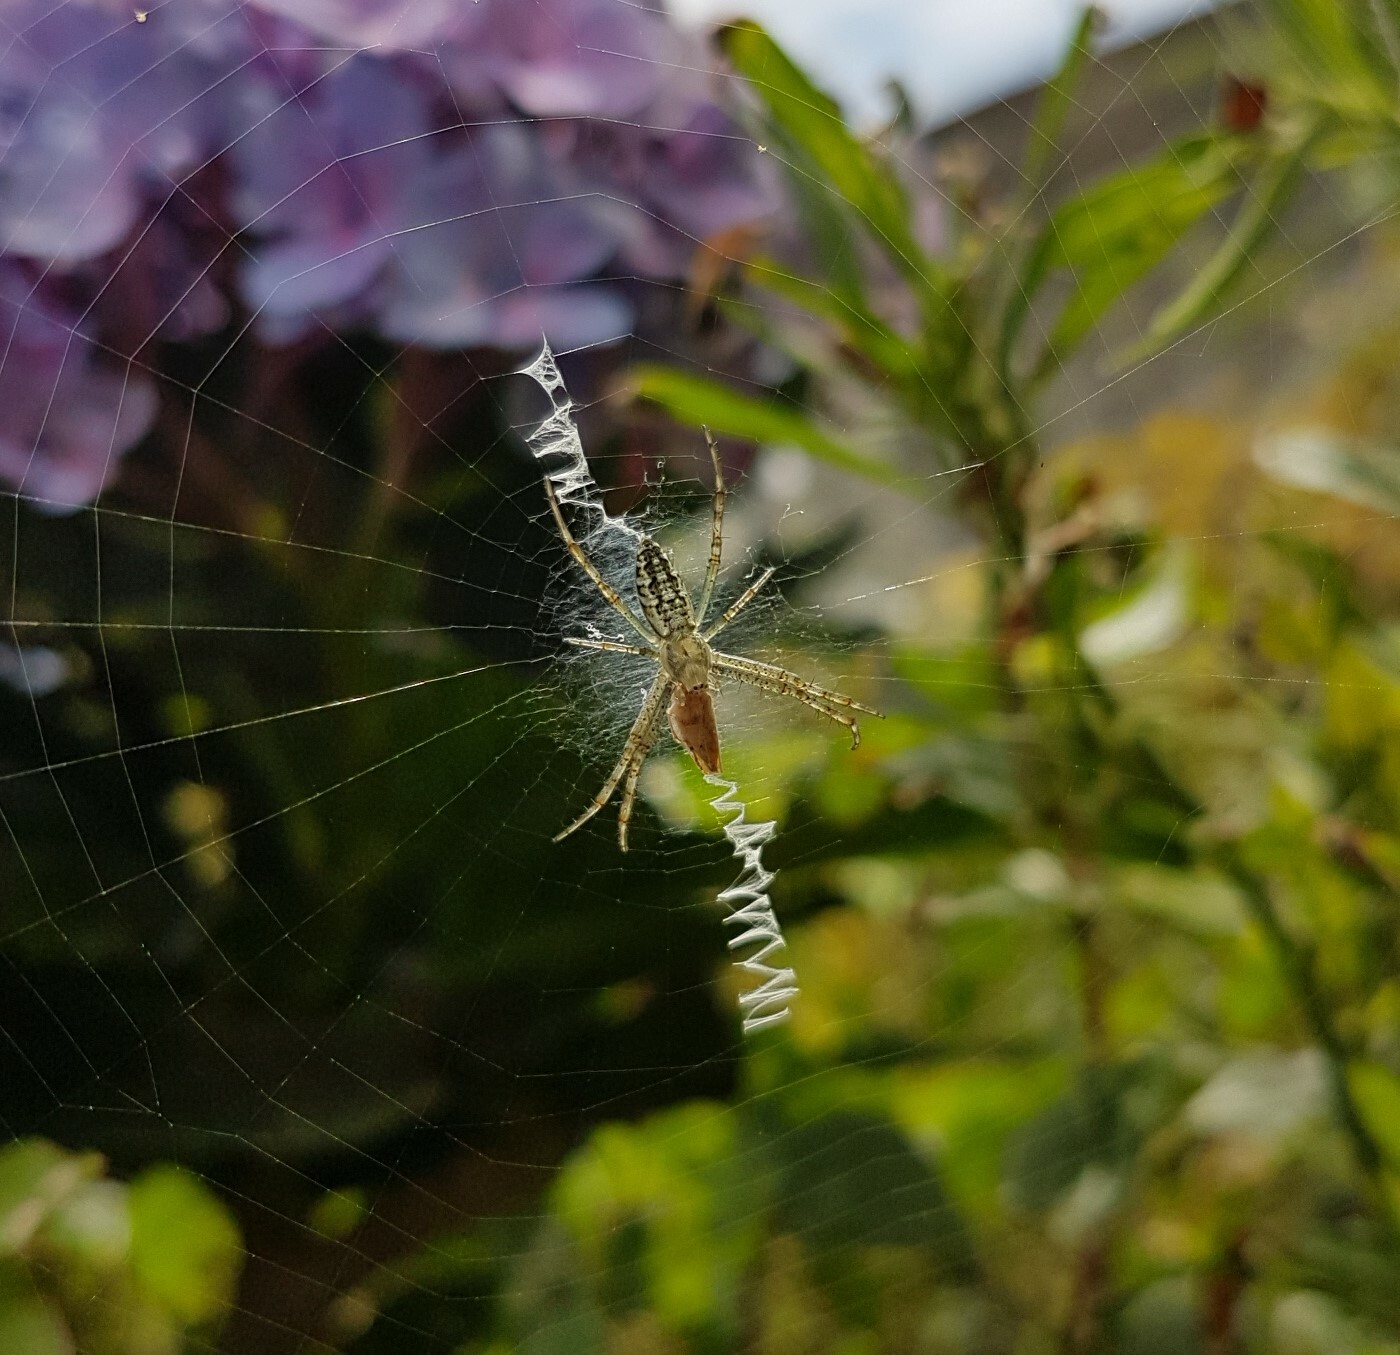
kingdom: Animalia
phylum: Arthropoda
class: Arachnida
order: Araneae
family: Araneidae
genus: Argiope
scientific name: Argiope bruennichi
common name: Wasp spider
